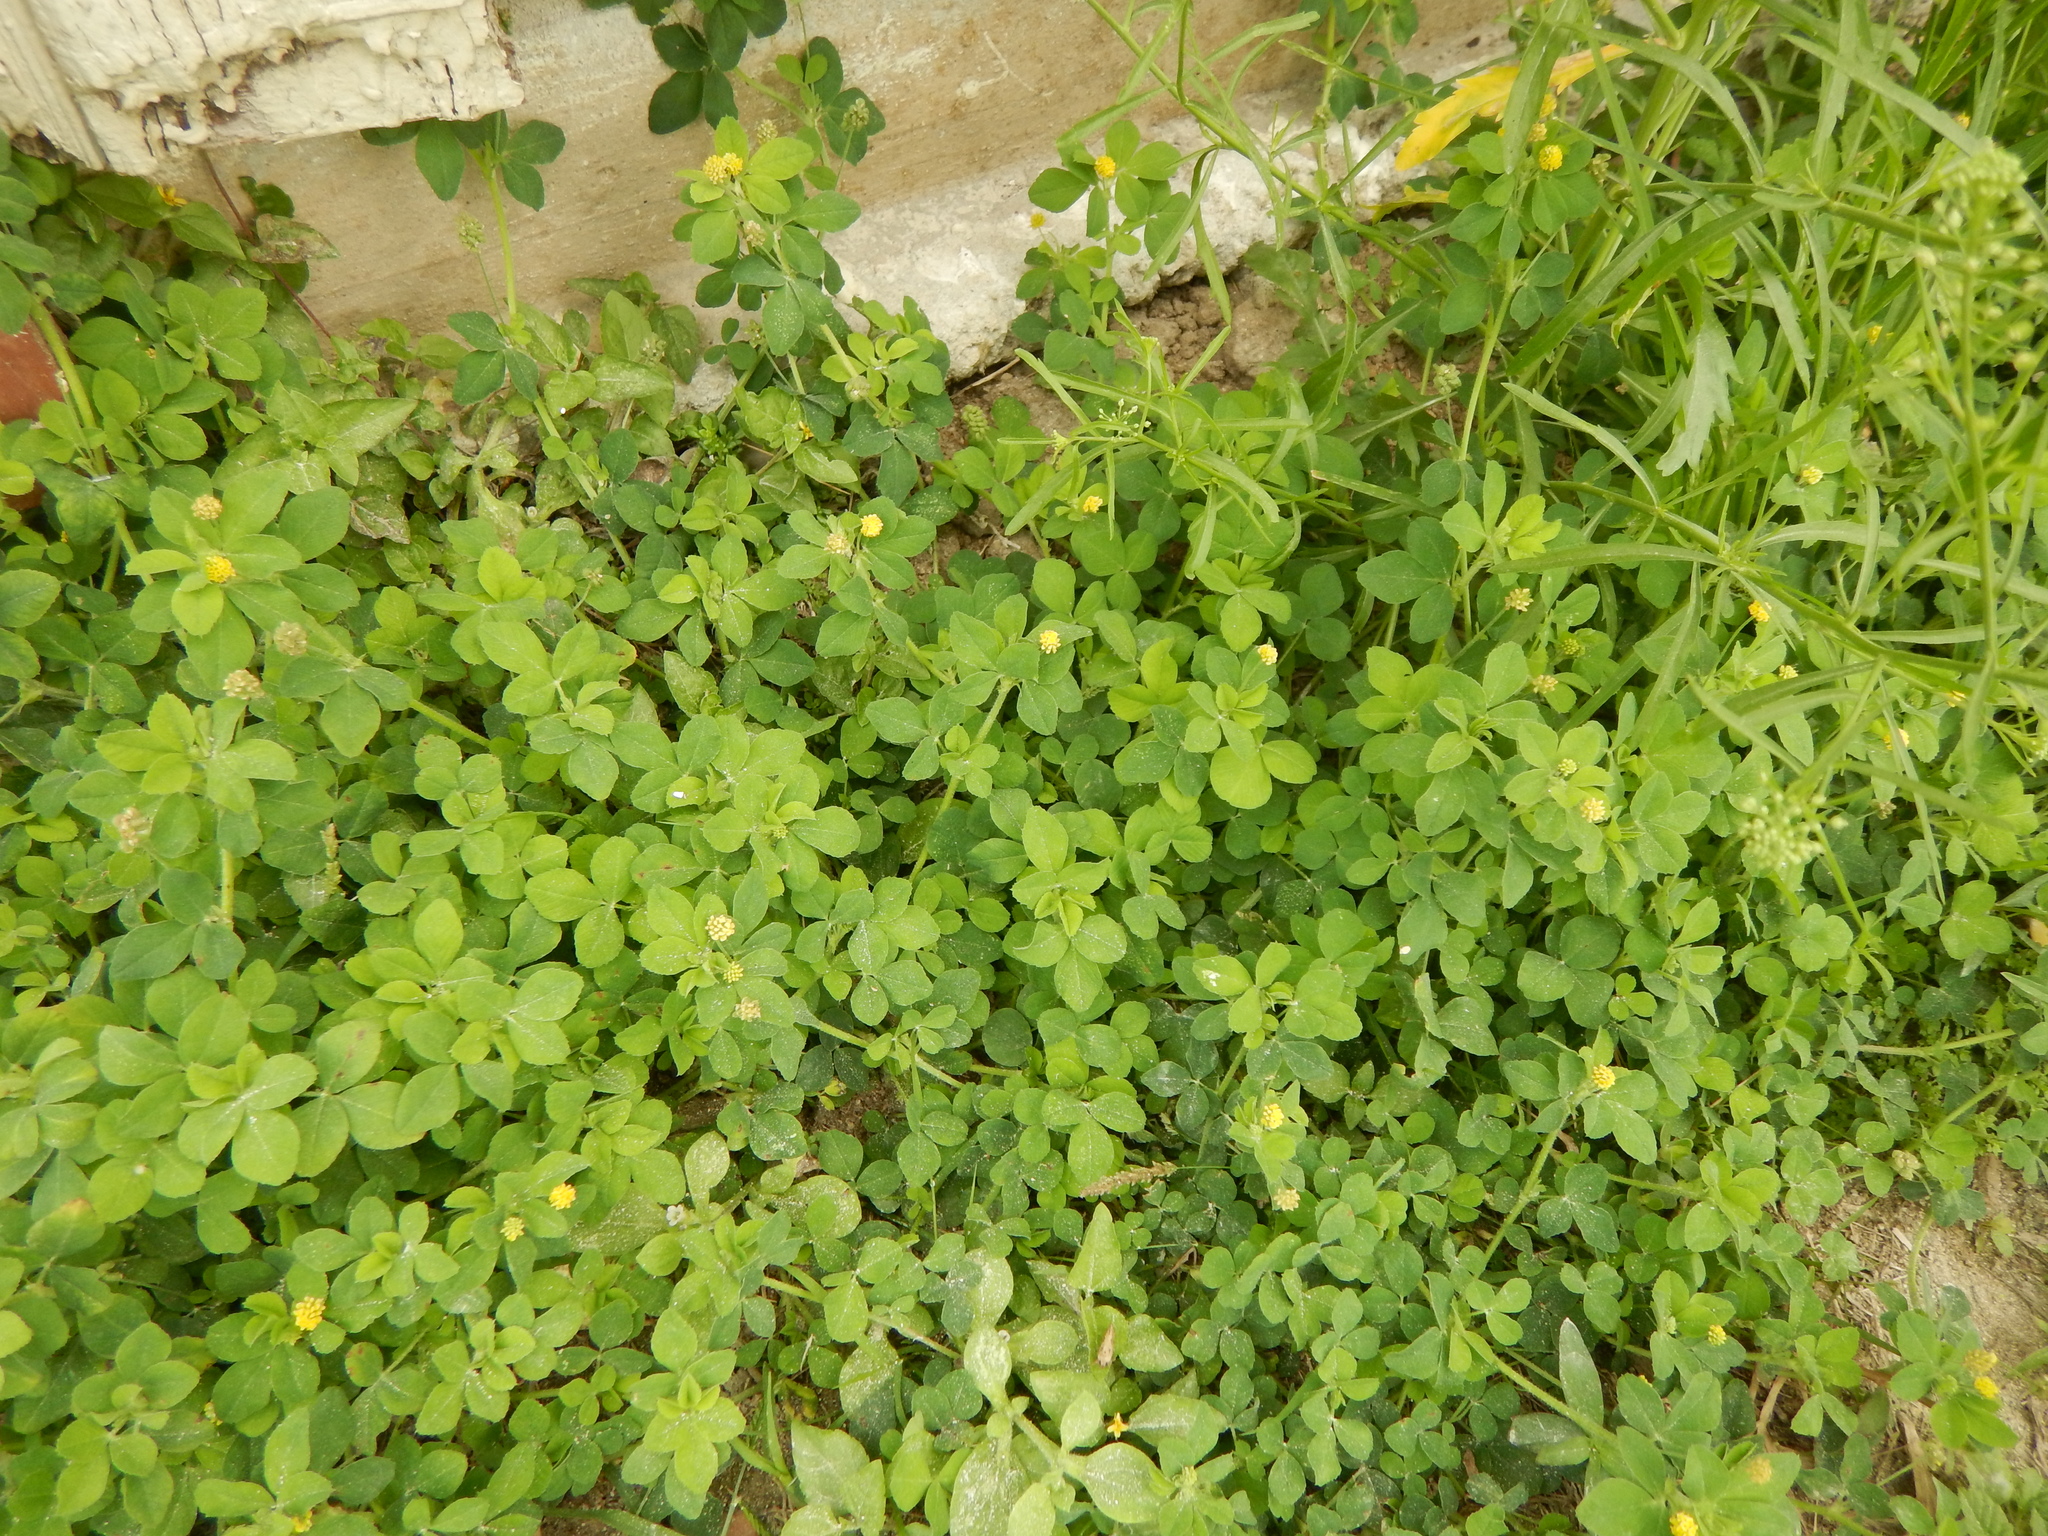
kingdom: Plantae
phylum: Tracheophyta
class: Magnoliopsida
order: Fabales
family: Fabaceae
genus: Medicago
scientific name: Medicago lupulina
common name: Black medick
